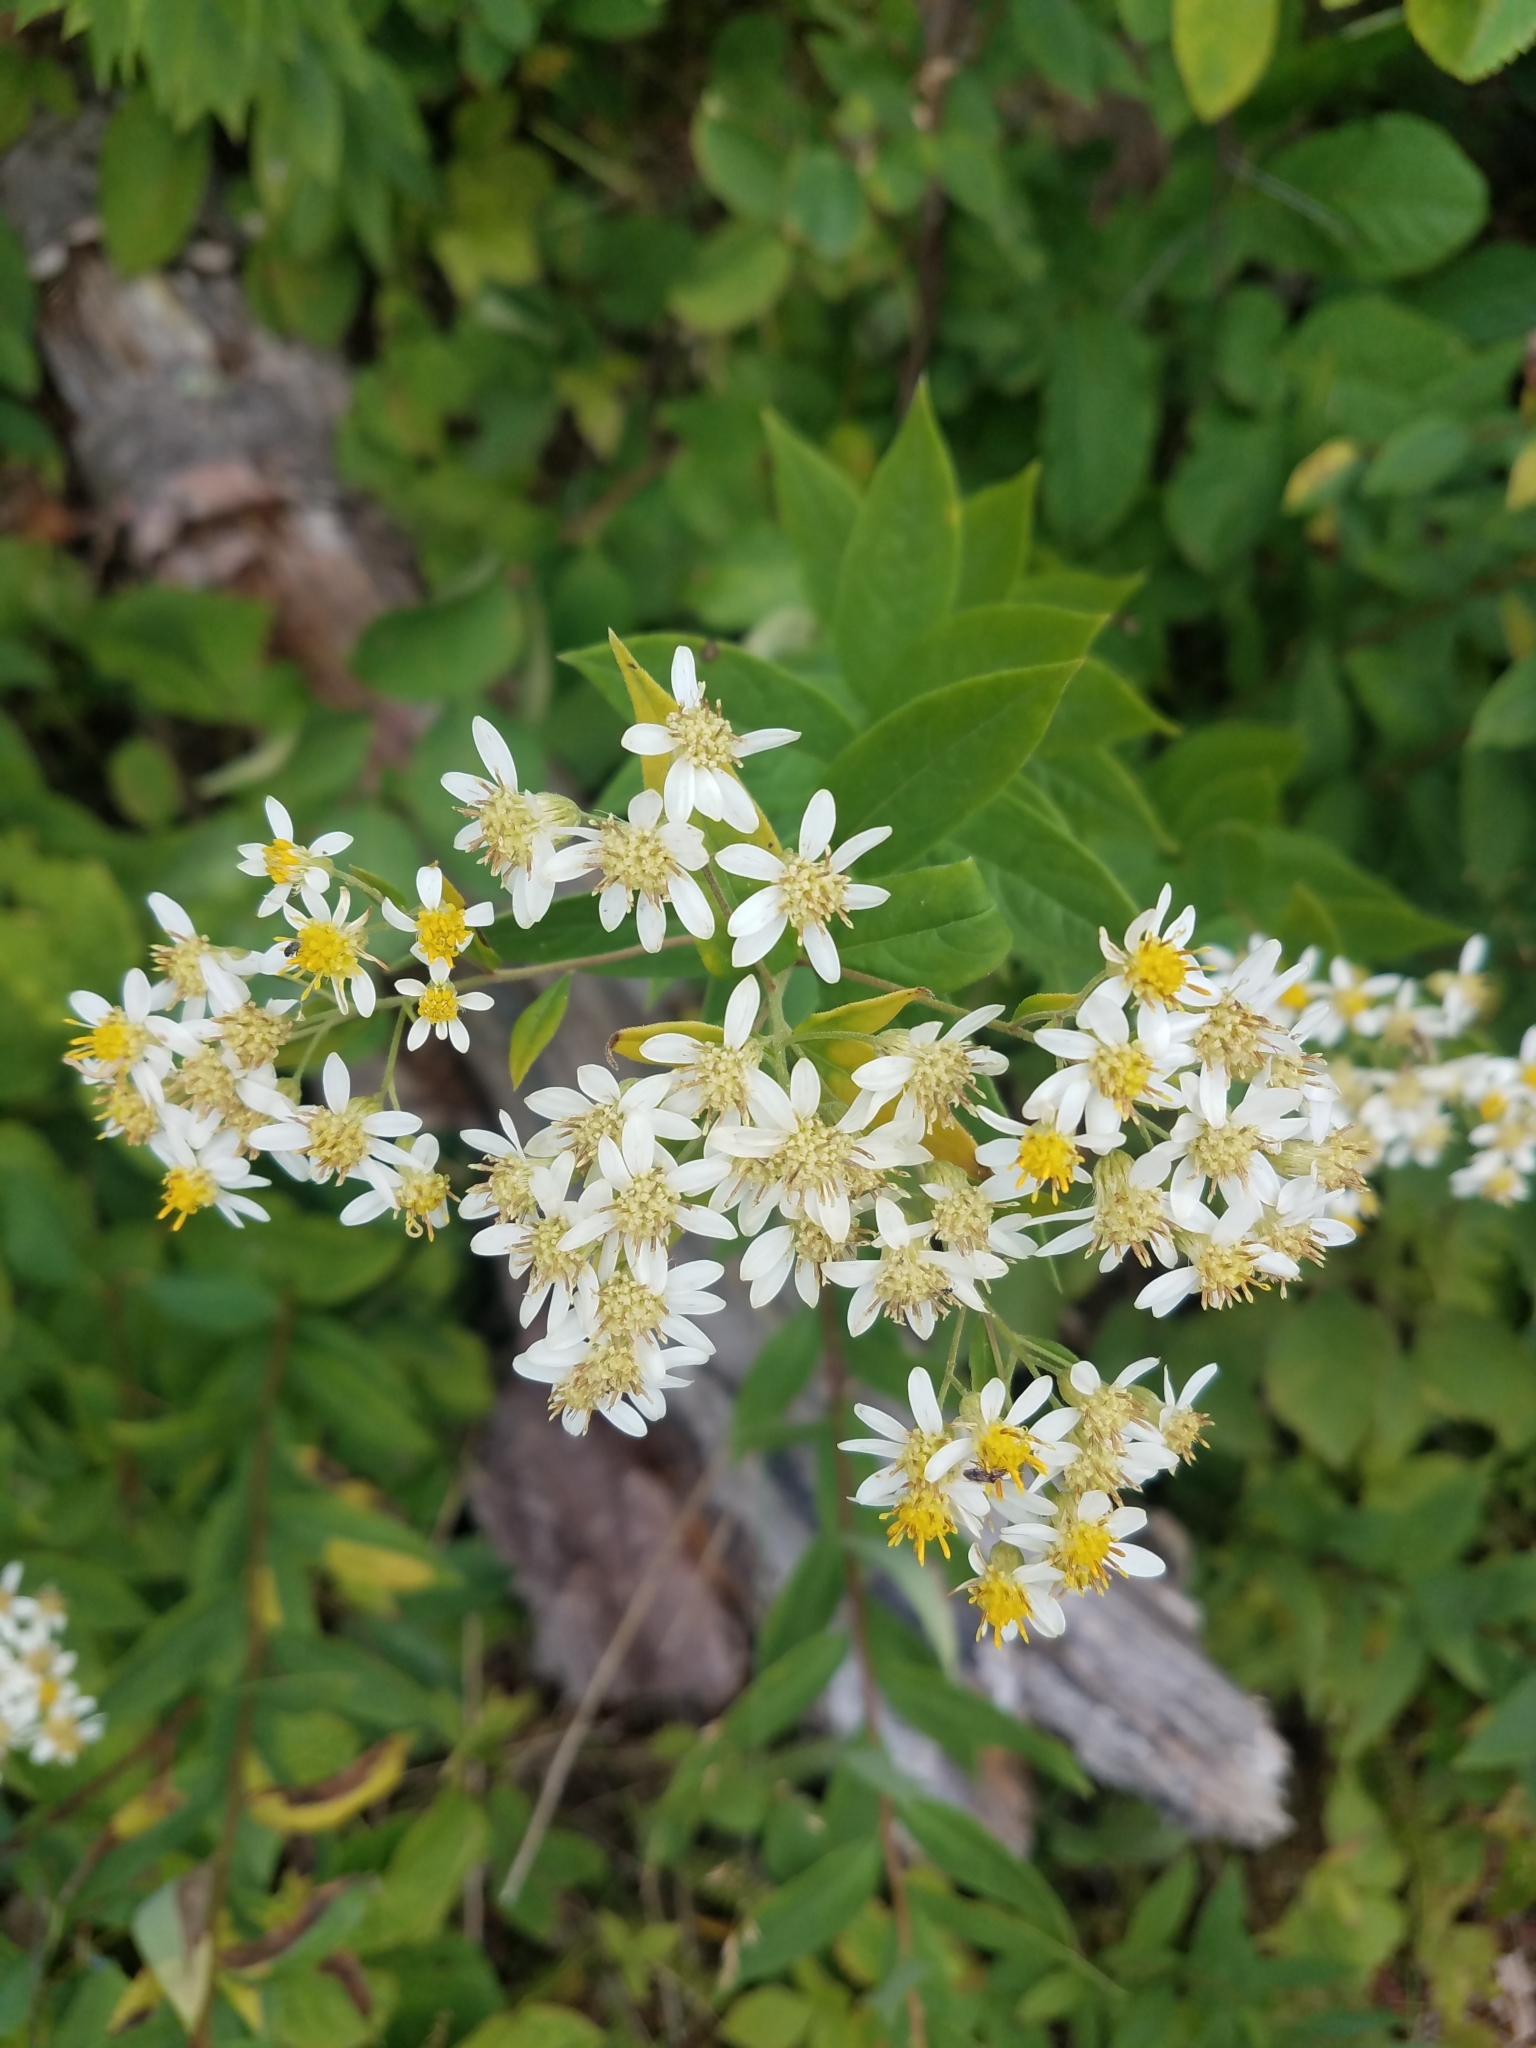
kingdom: Plantae
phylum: Tracheophyta
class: Magnoliopsida
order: Asterales
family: Asteraceae
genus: Doellingeria
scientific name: Doellingeria umbellata
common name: Flat-top white aster
